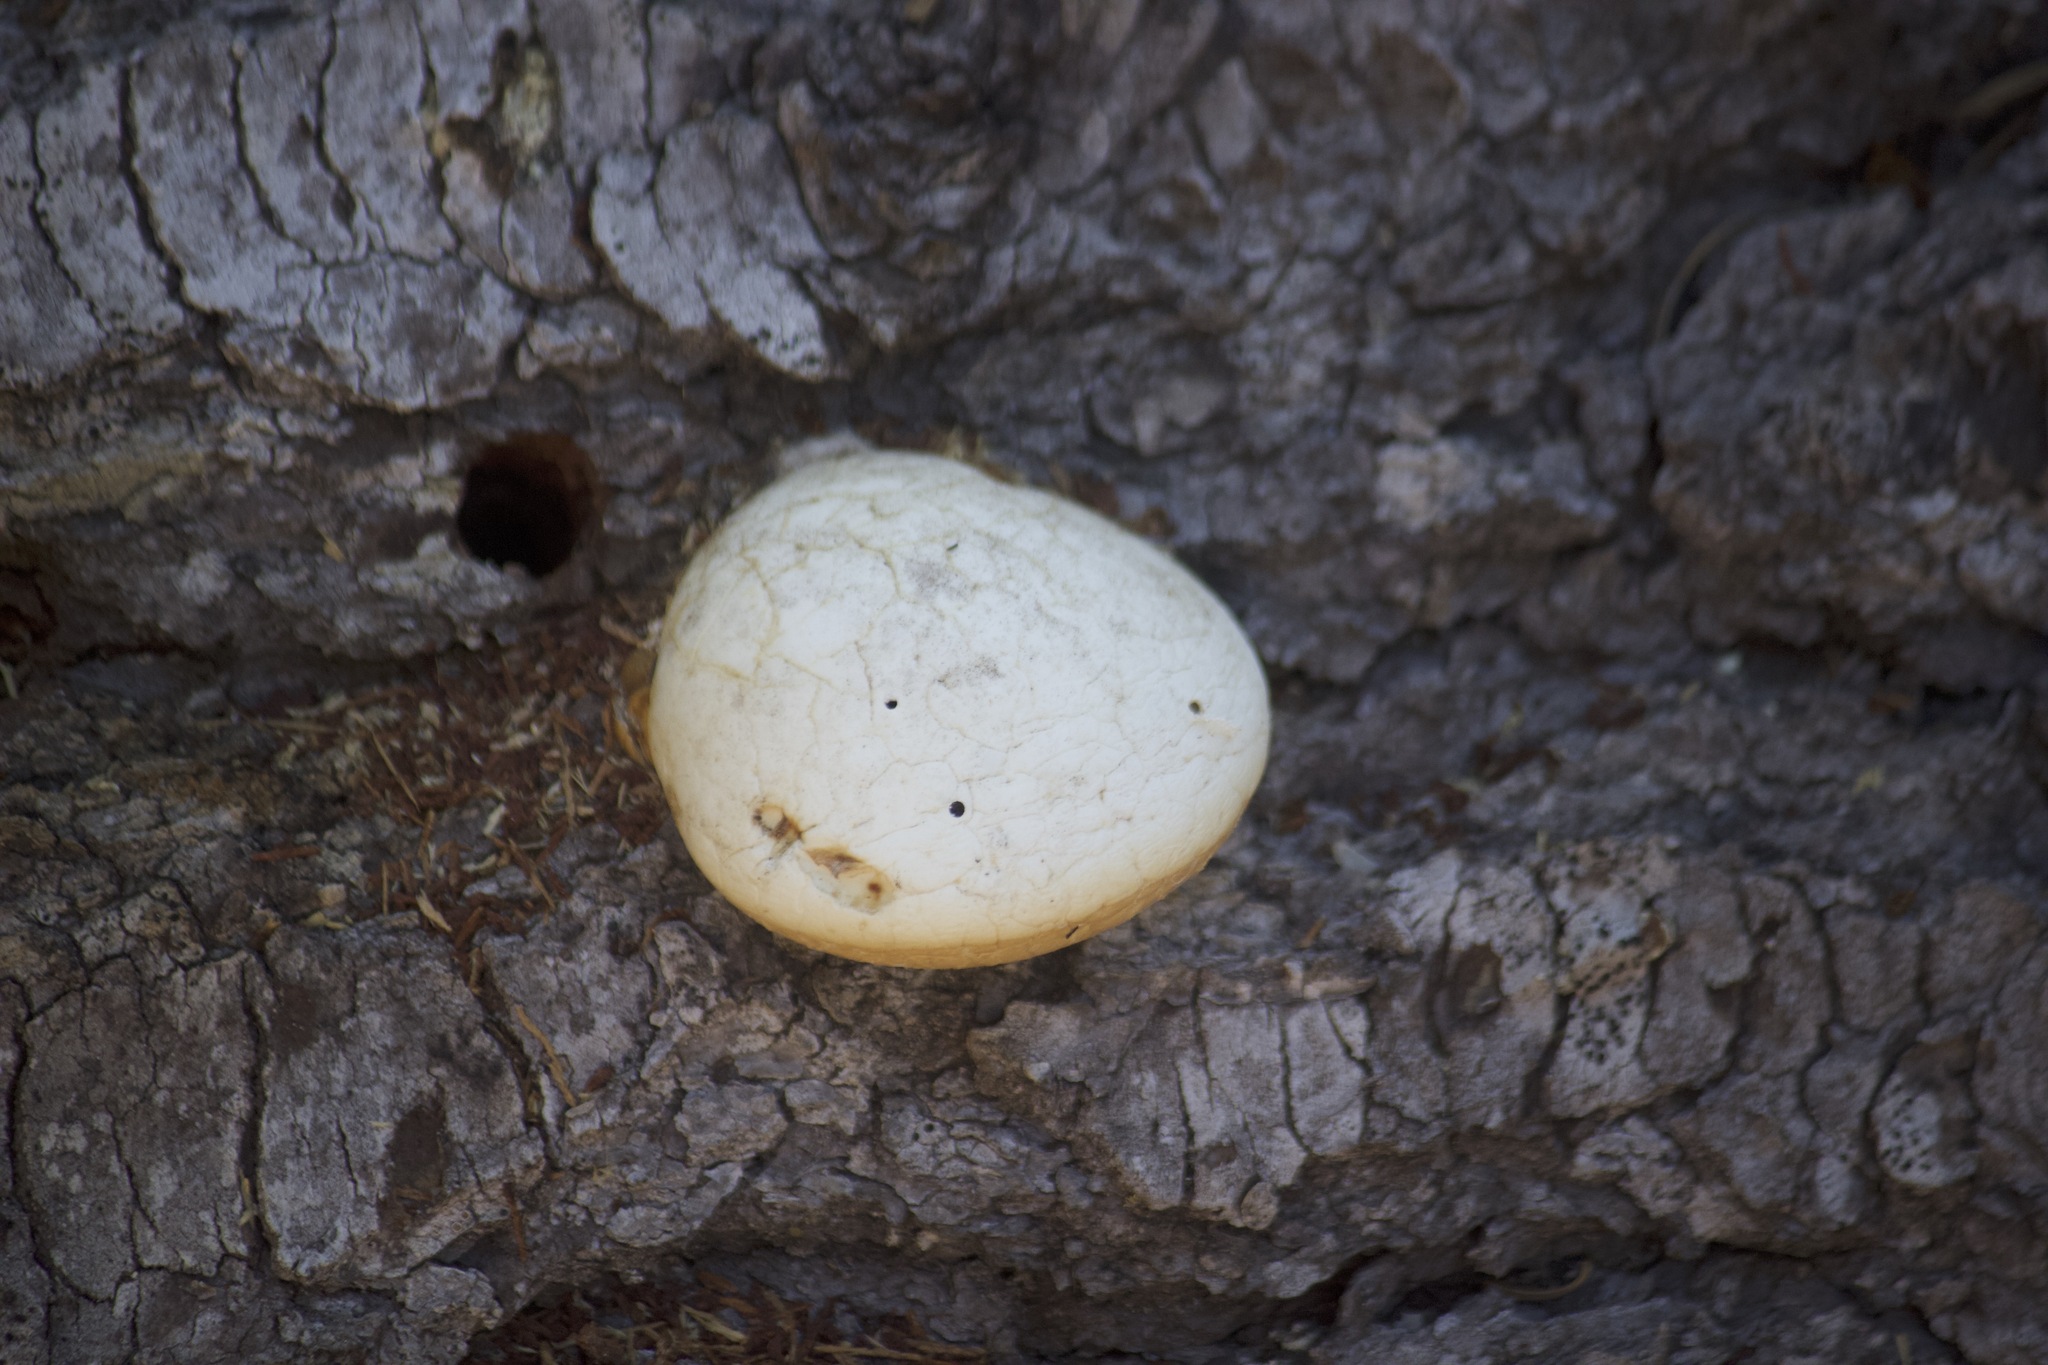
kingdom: Fungi
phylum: Basidiomycota
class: Agaricomycetes
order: Polyporales
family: Polyporaceae
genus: Cryptoporus
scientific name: Cryptoporus volvatus
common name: Veiled polypore
